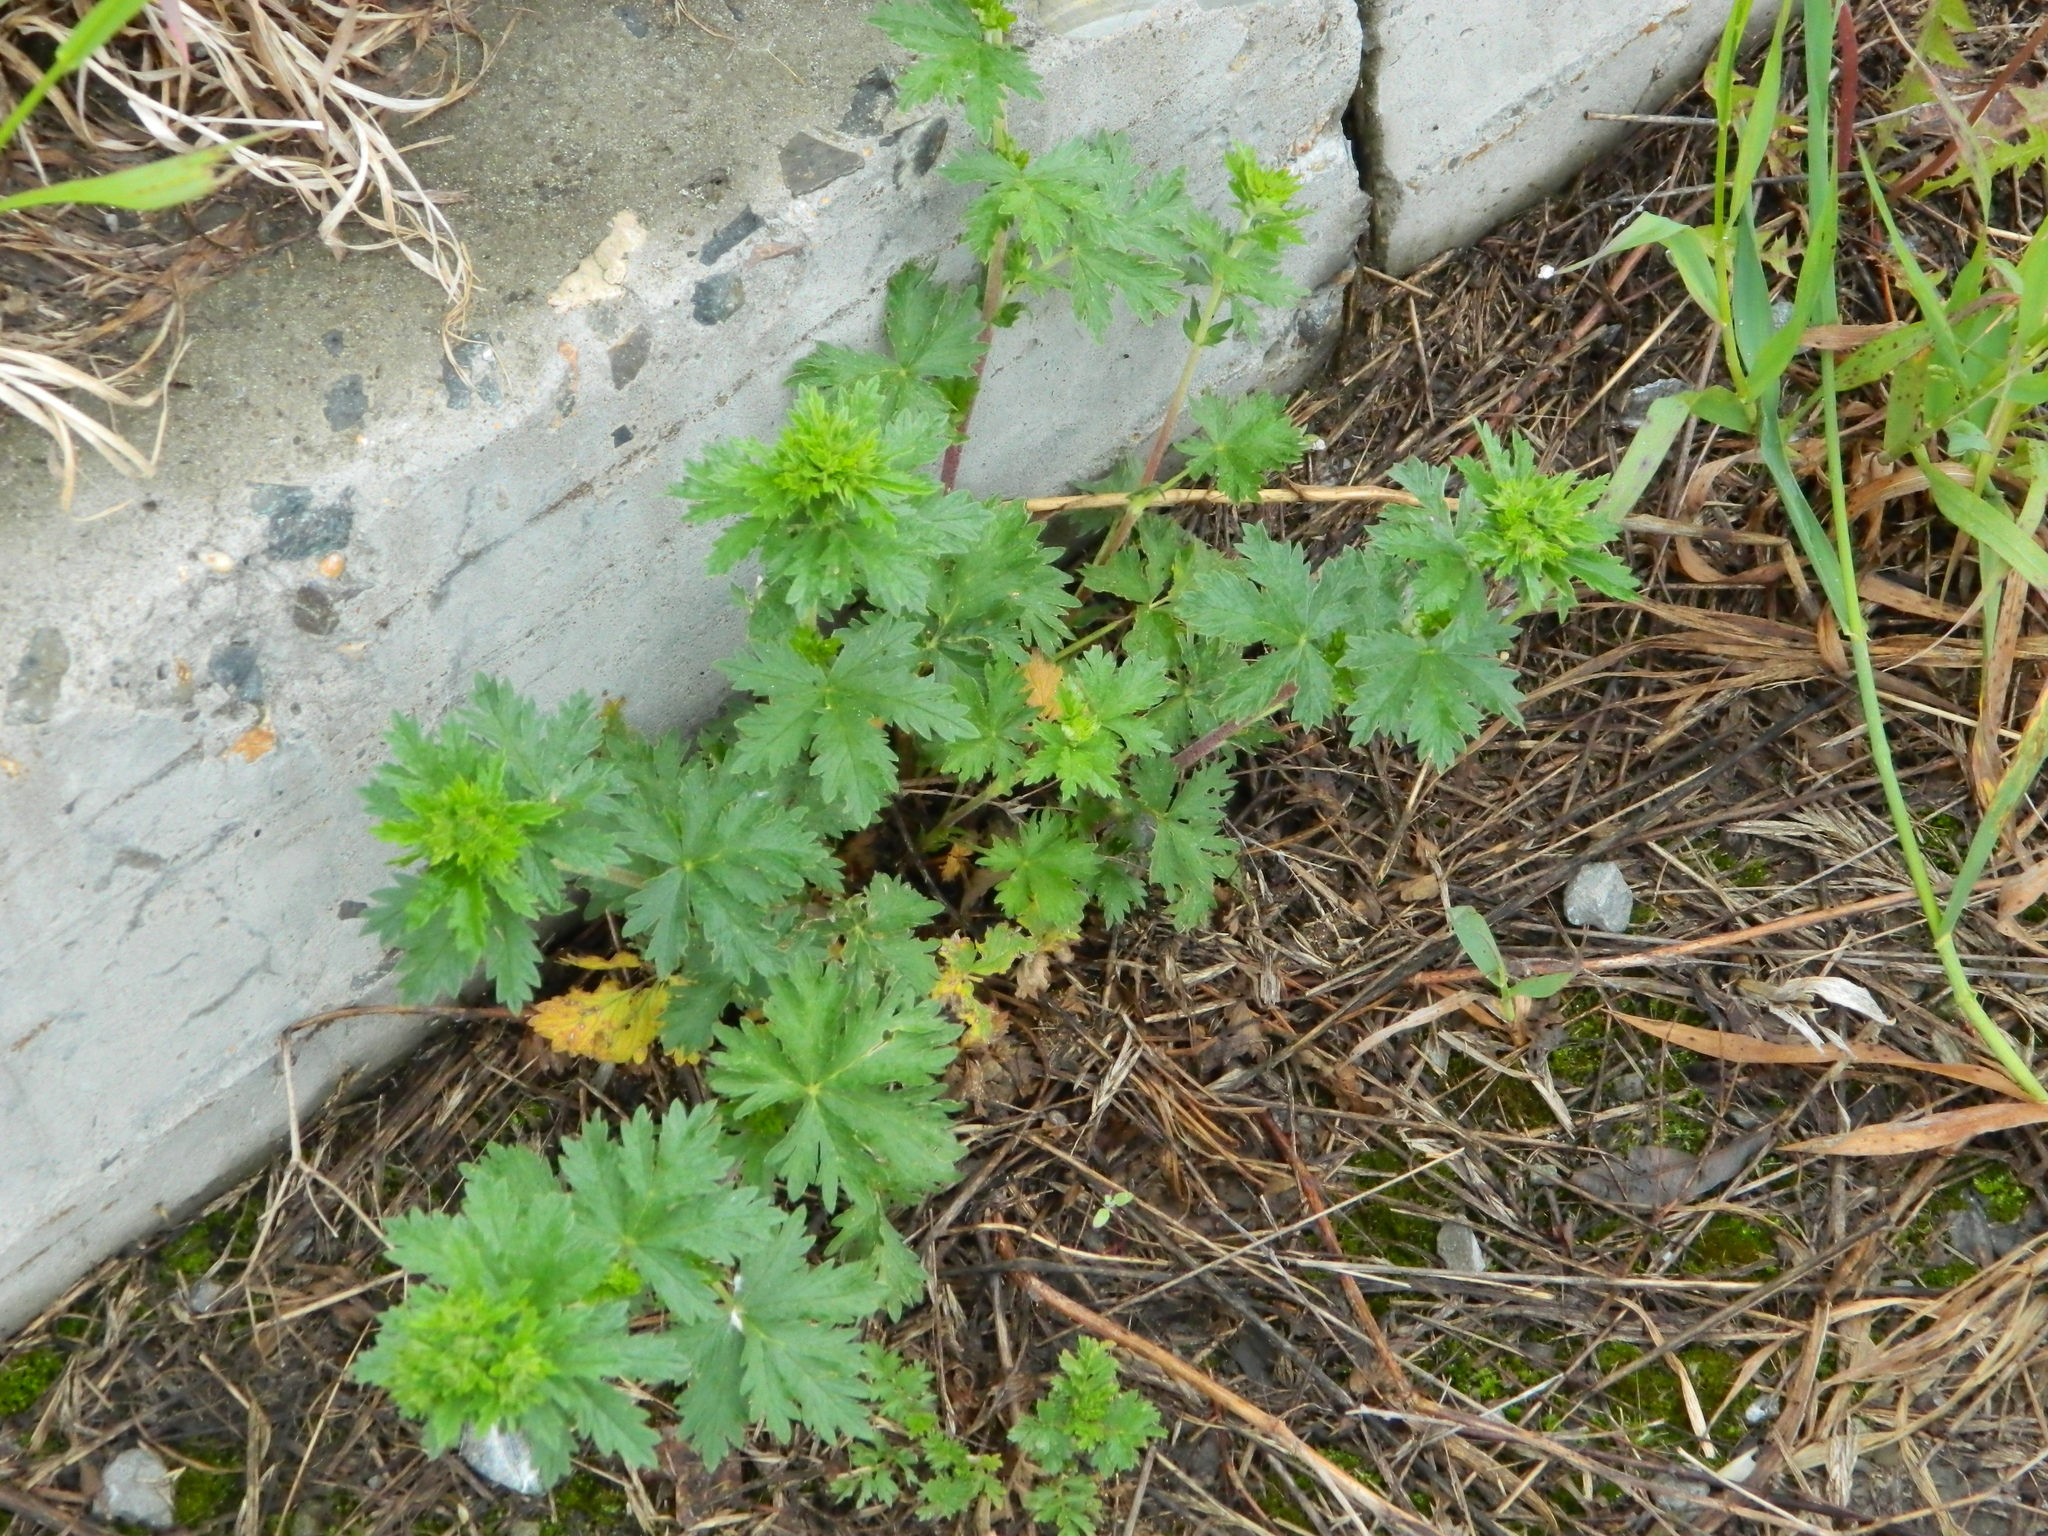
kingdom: Plantae
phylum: Tracheophyta
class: Magnoliopsida
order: Rosales
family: Rosaceae
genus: Potentilla
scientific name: Potentilla intermedia
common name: Downy cinquefoil
